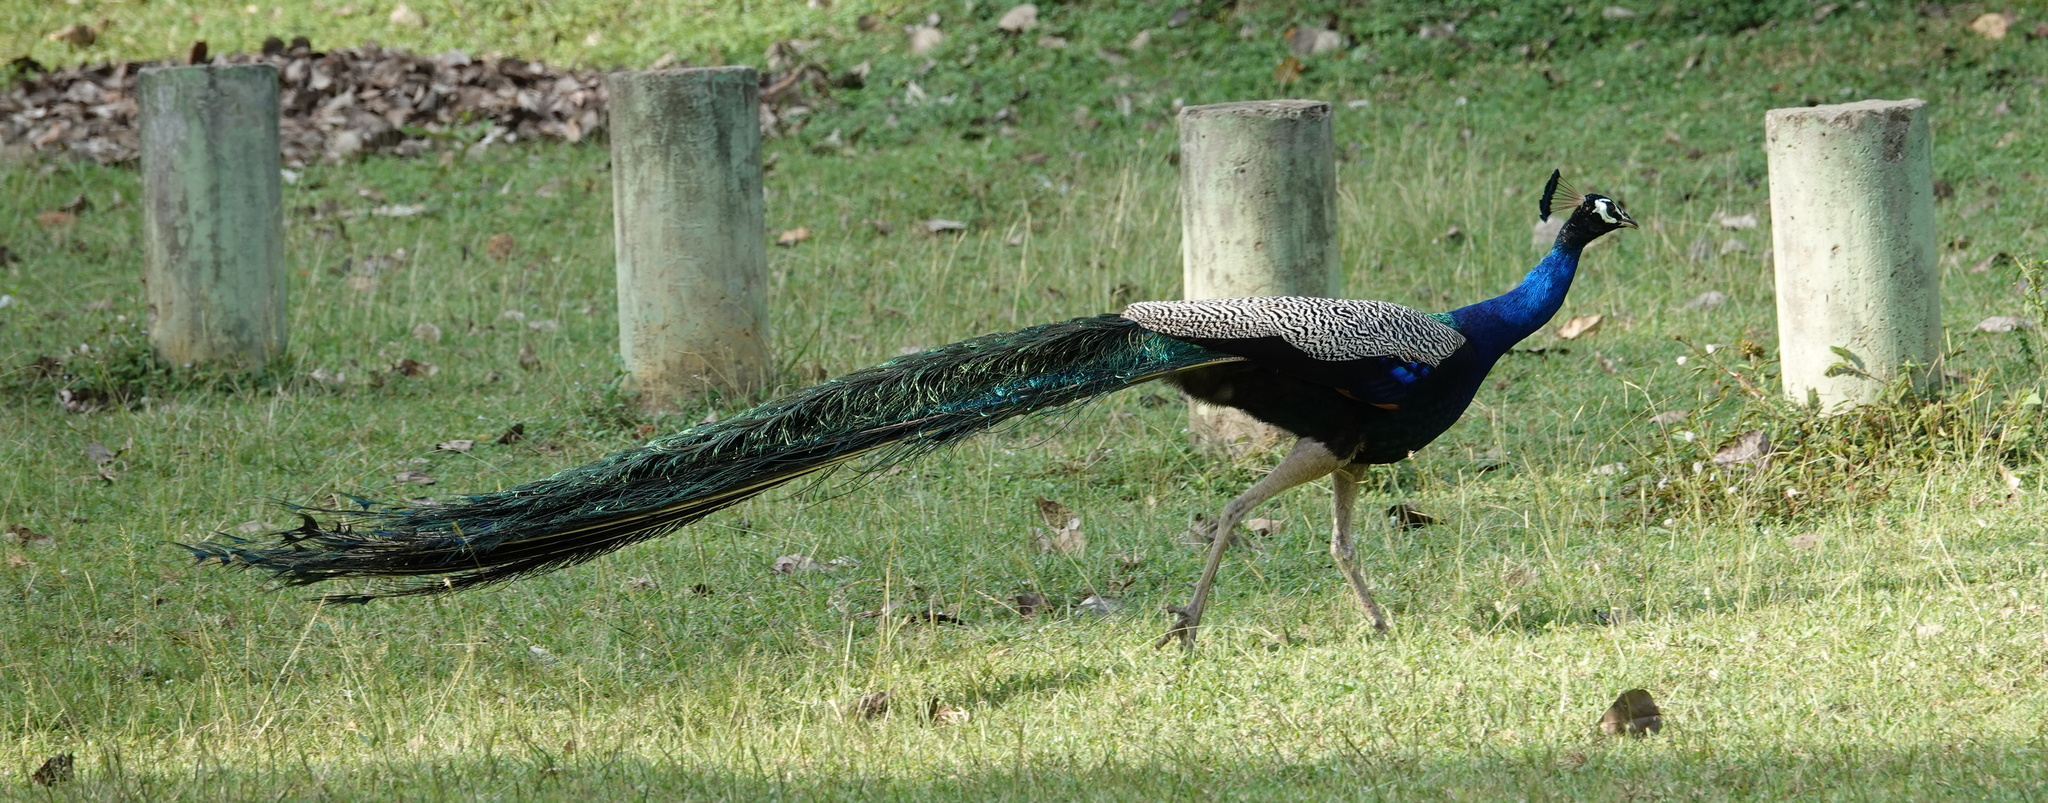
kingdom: Animalia
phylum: Chordata
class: Aves
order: Galliformes
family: Phasianidae
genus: Pavo
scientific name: Pavo cristatus
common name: Indian peafowl
